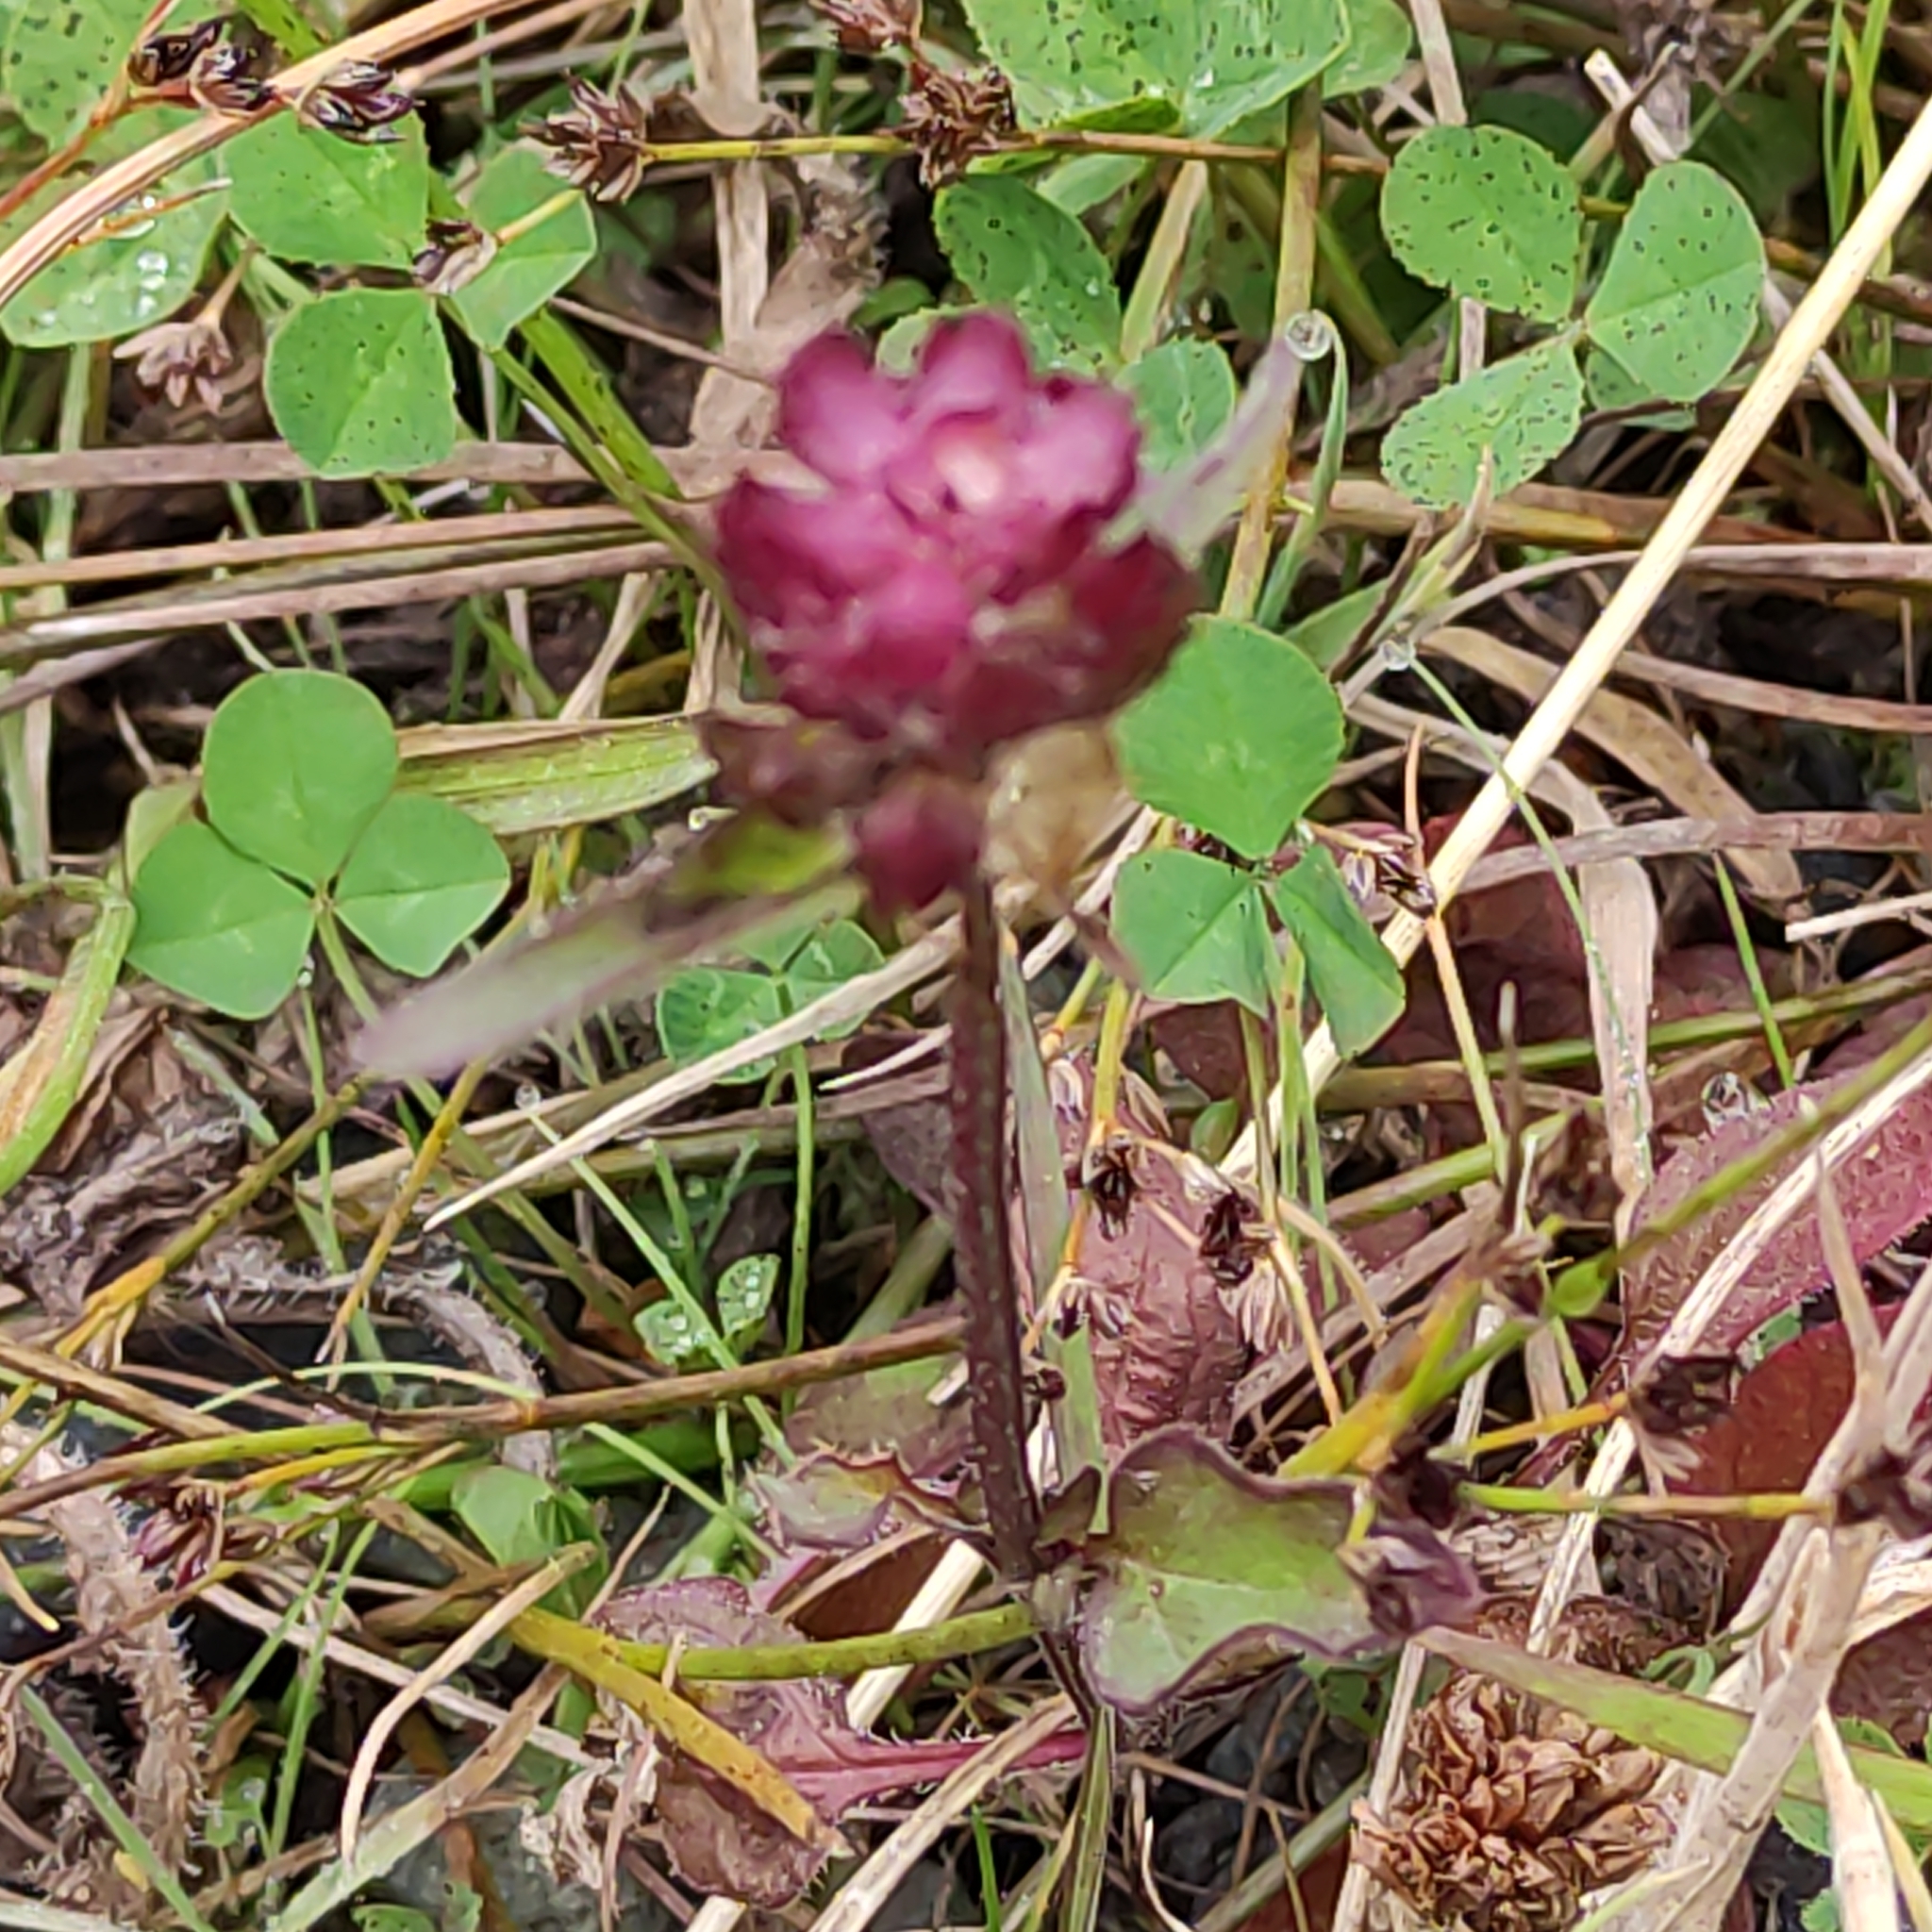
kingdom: Plantae
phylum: Tracheophyta
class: Magnoliopsida
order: Lamiales
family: Lamiaceae
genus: Prunella
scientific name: Prunella vulgaris
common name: Heal-all
